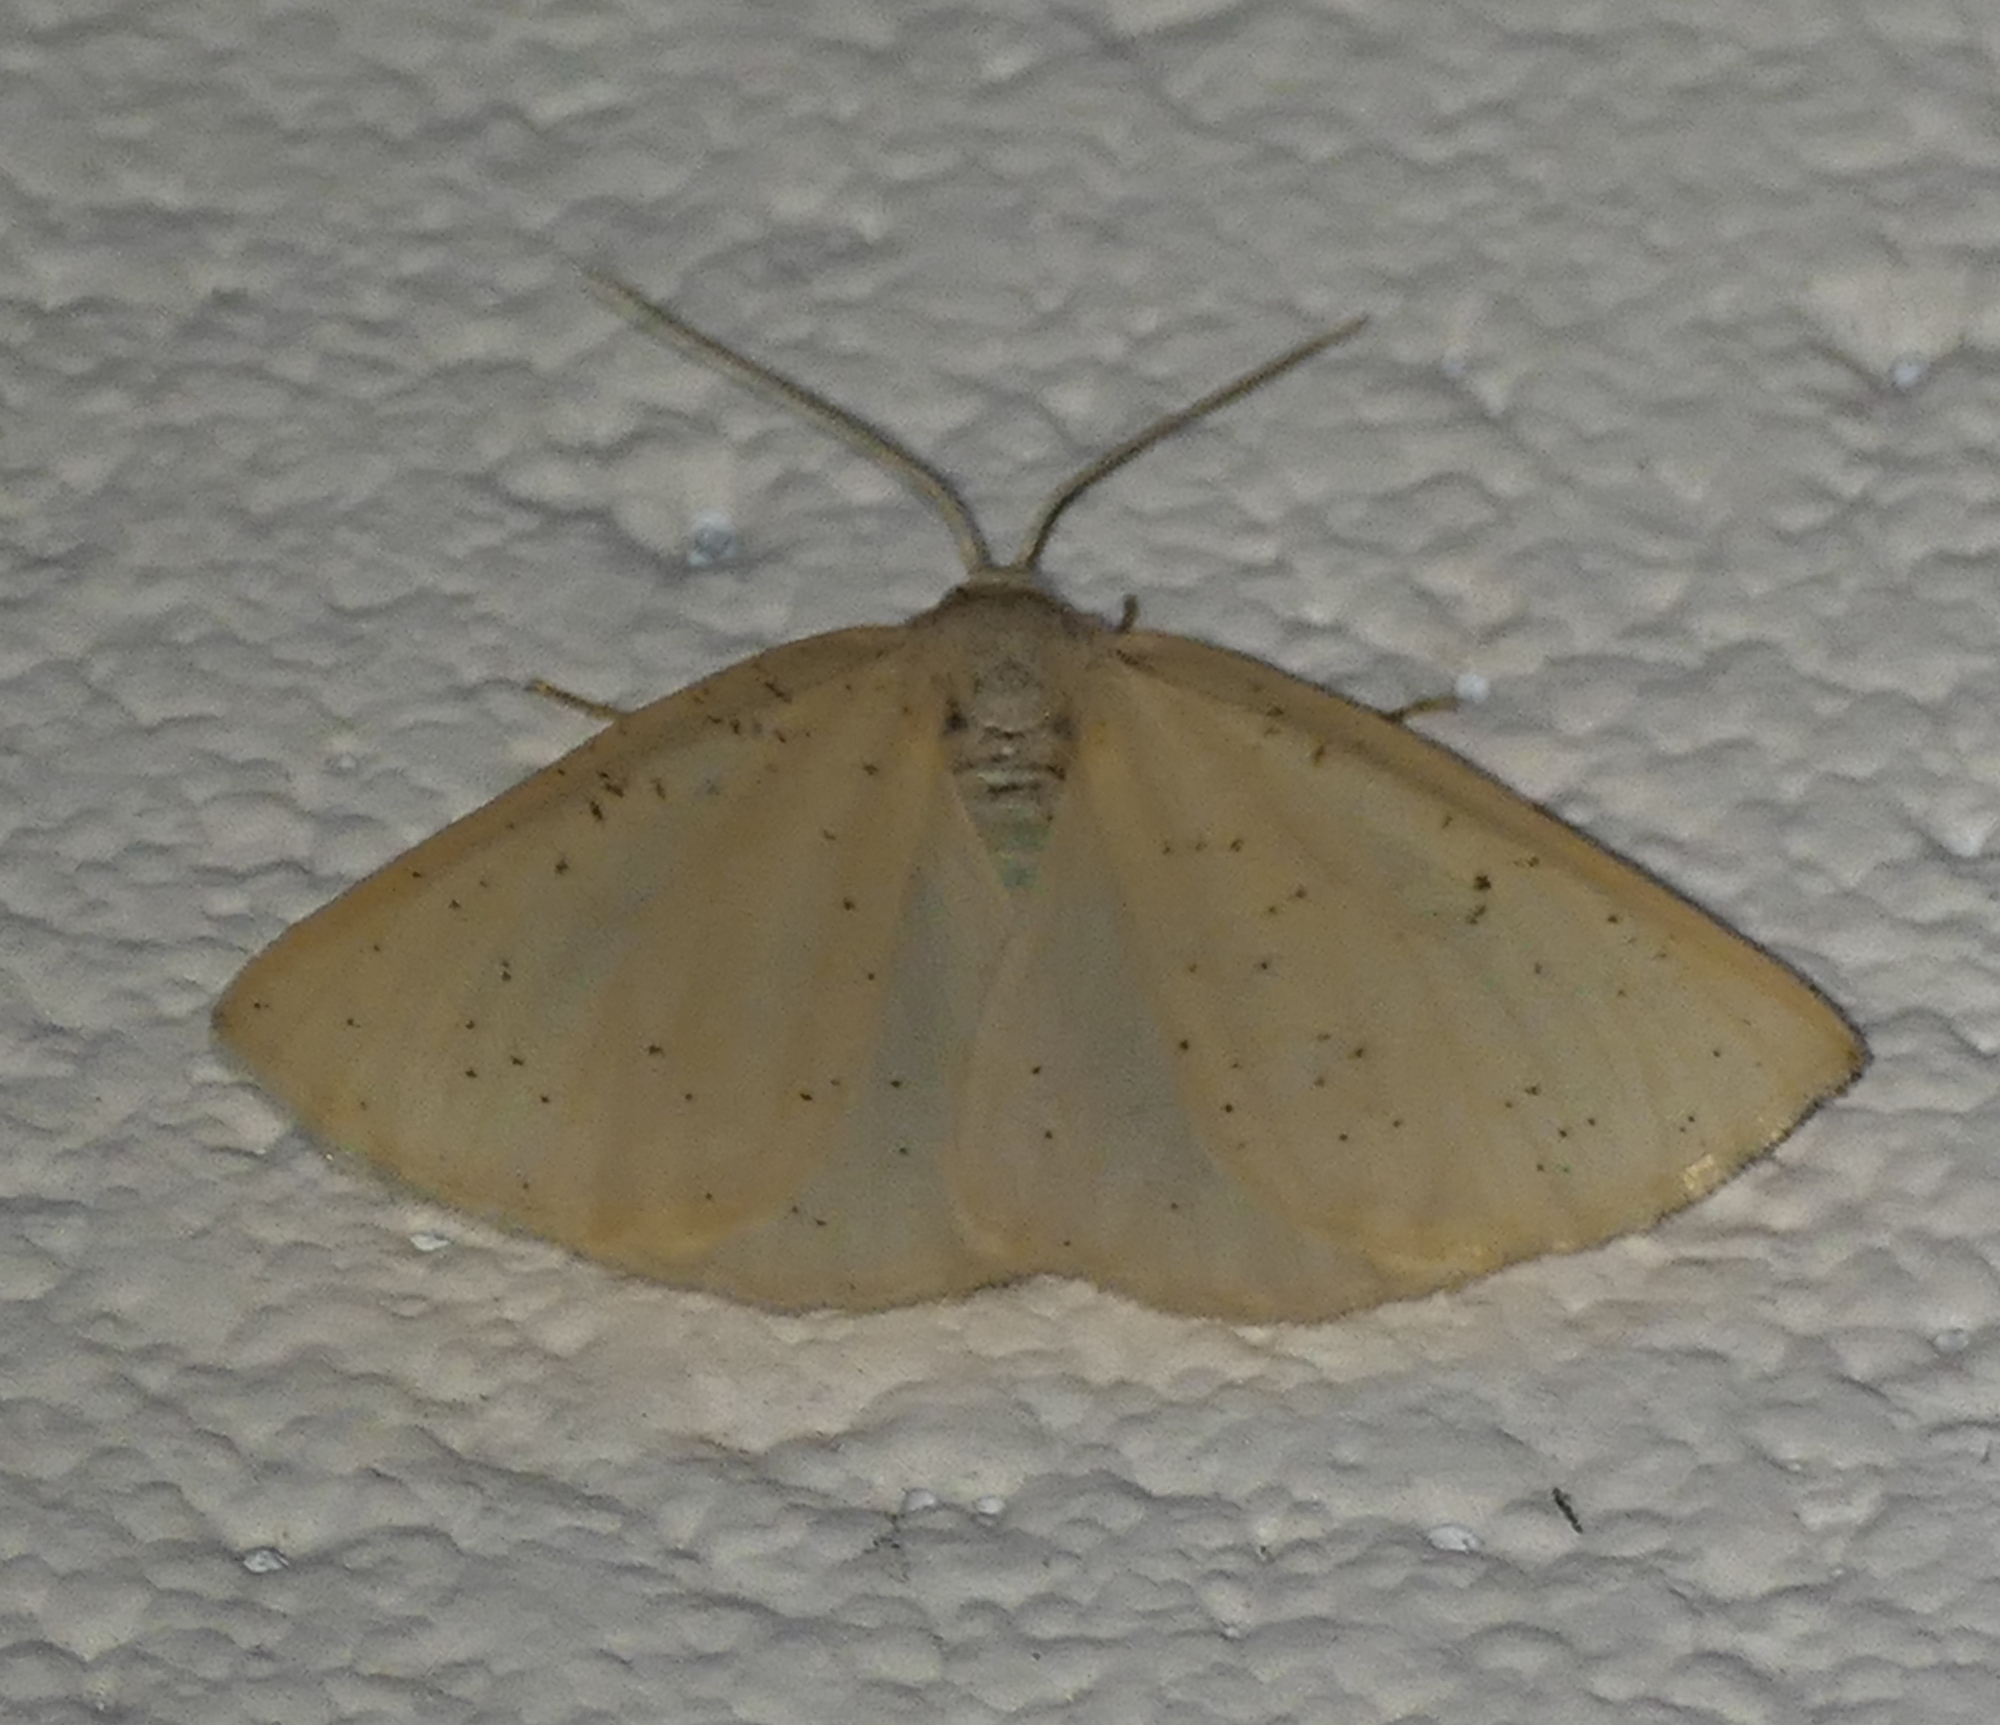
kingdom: Animalia
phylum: Arthropoda
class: Insecta
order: Lepidoptera
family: Geometridae
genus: Lychnosea
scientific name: Lychnosea intermicata
